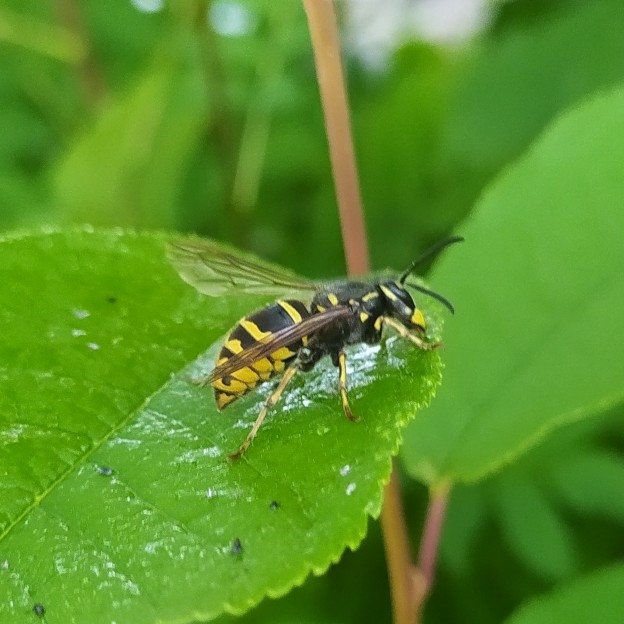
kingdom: Animalia
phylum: Arthropoda
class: Insecta
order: Hymenoptera
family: Vespidae
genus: Vespula
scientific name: Vespula vulgaris
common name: Common wasp
